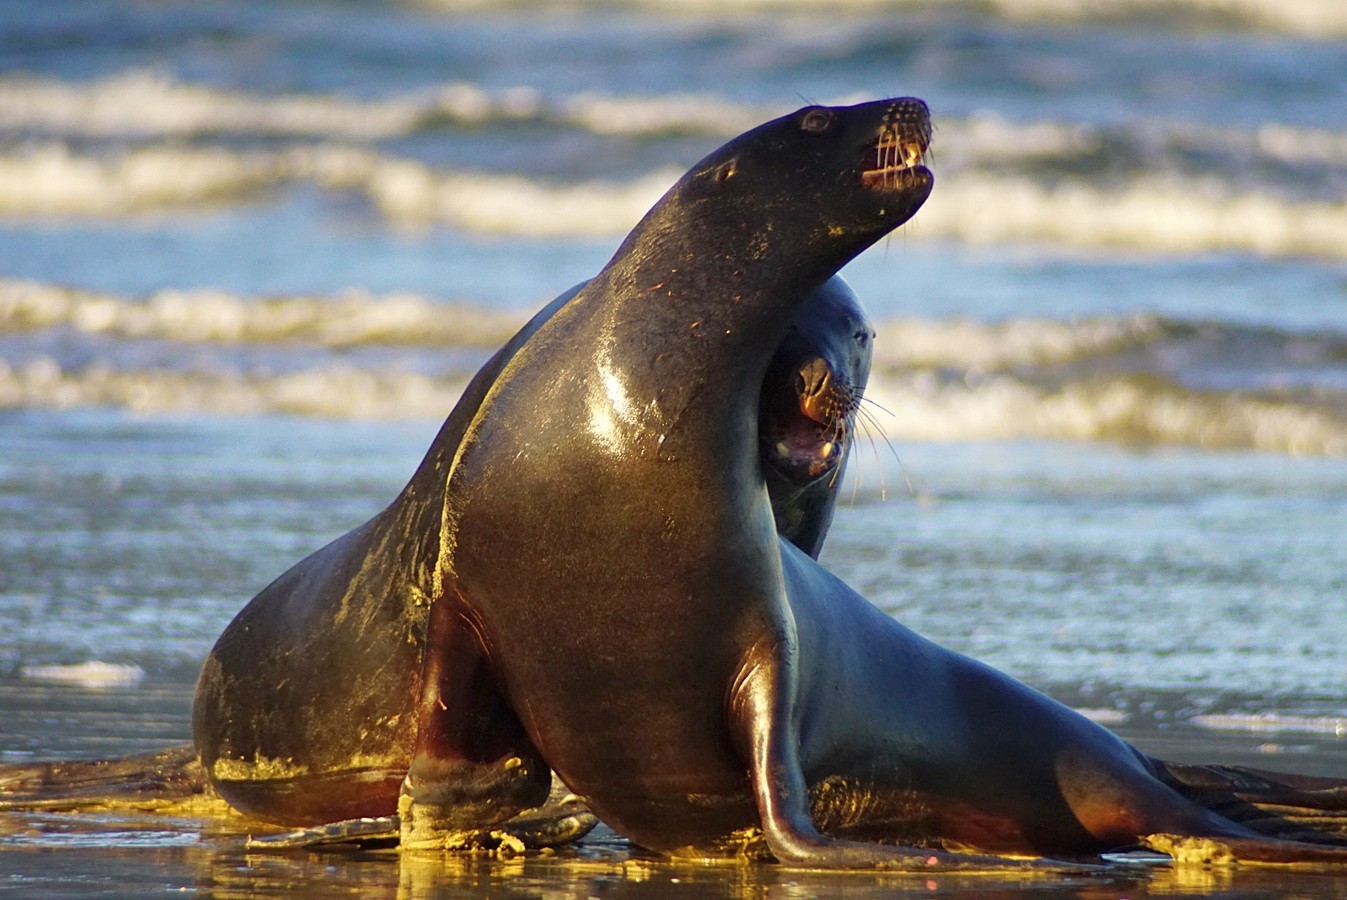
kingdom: Animalia
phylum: Chordata
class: Mammalia
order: Carnivora
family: Otariidae
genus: Phocarctos
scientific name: Phocarctos hookeri
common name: New zealand sea lion
